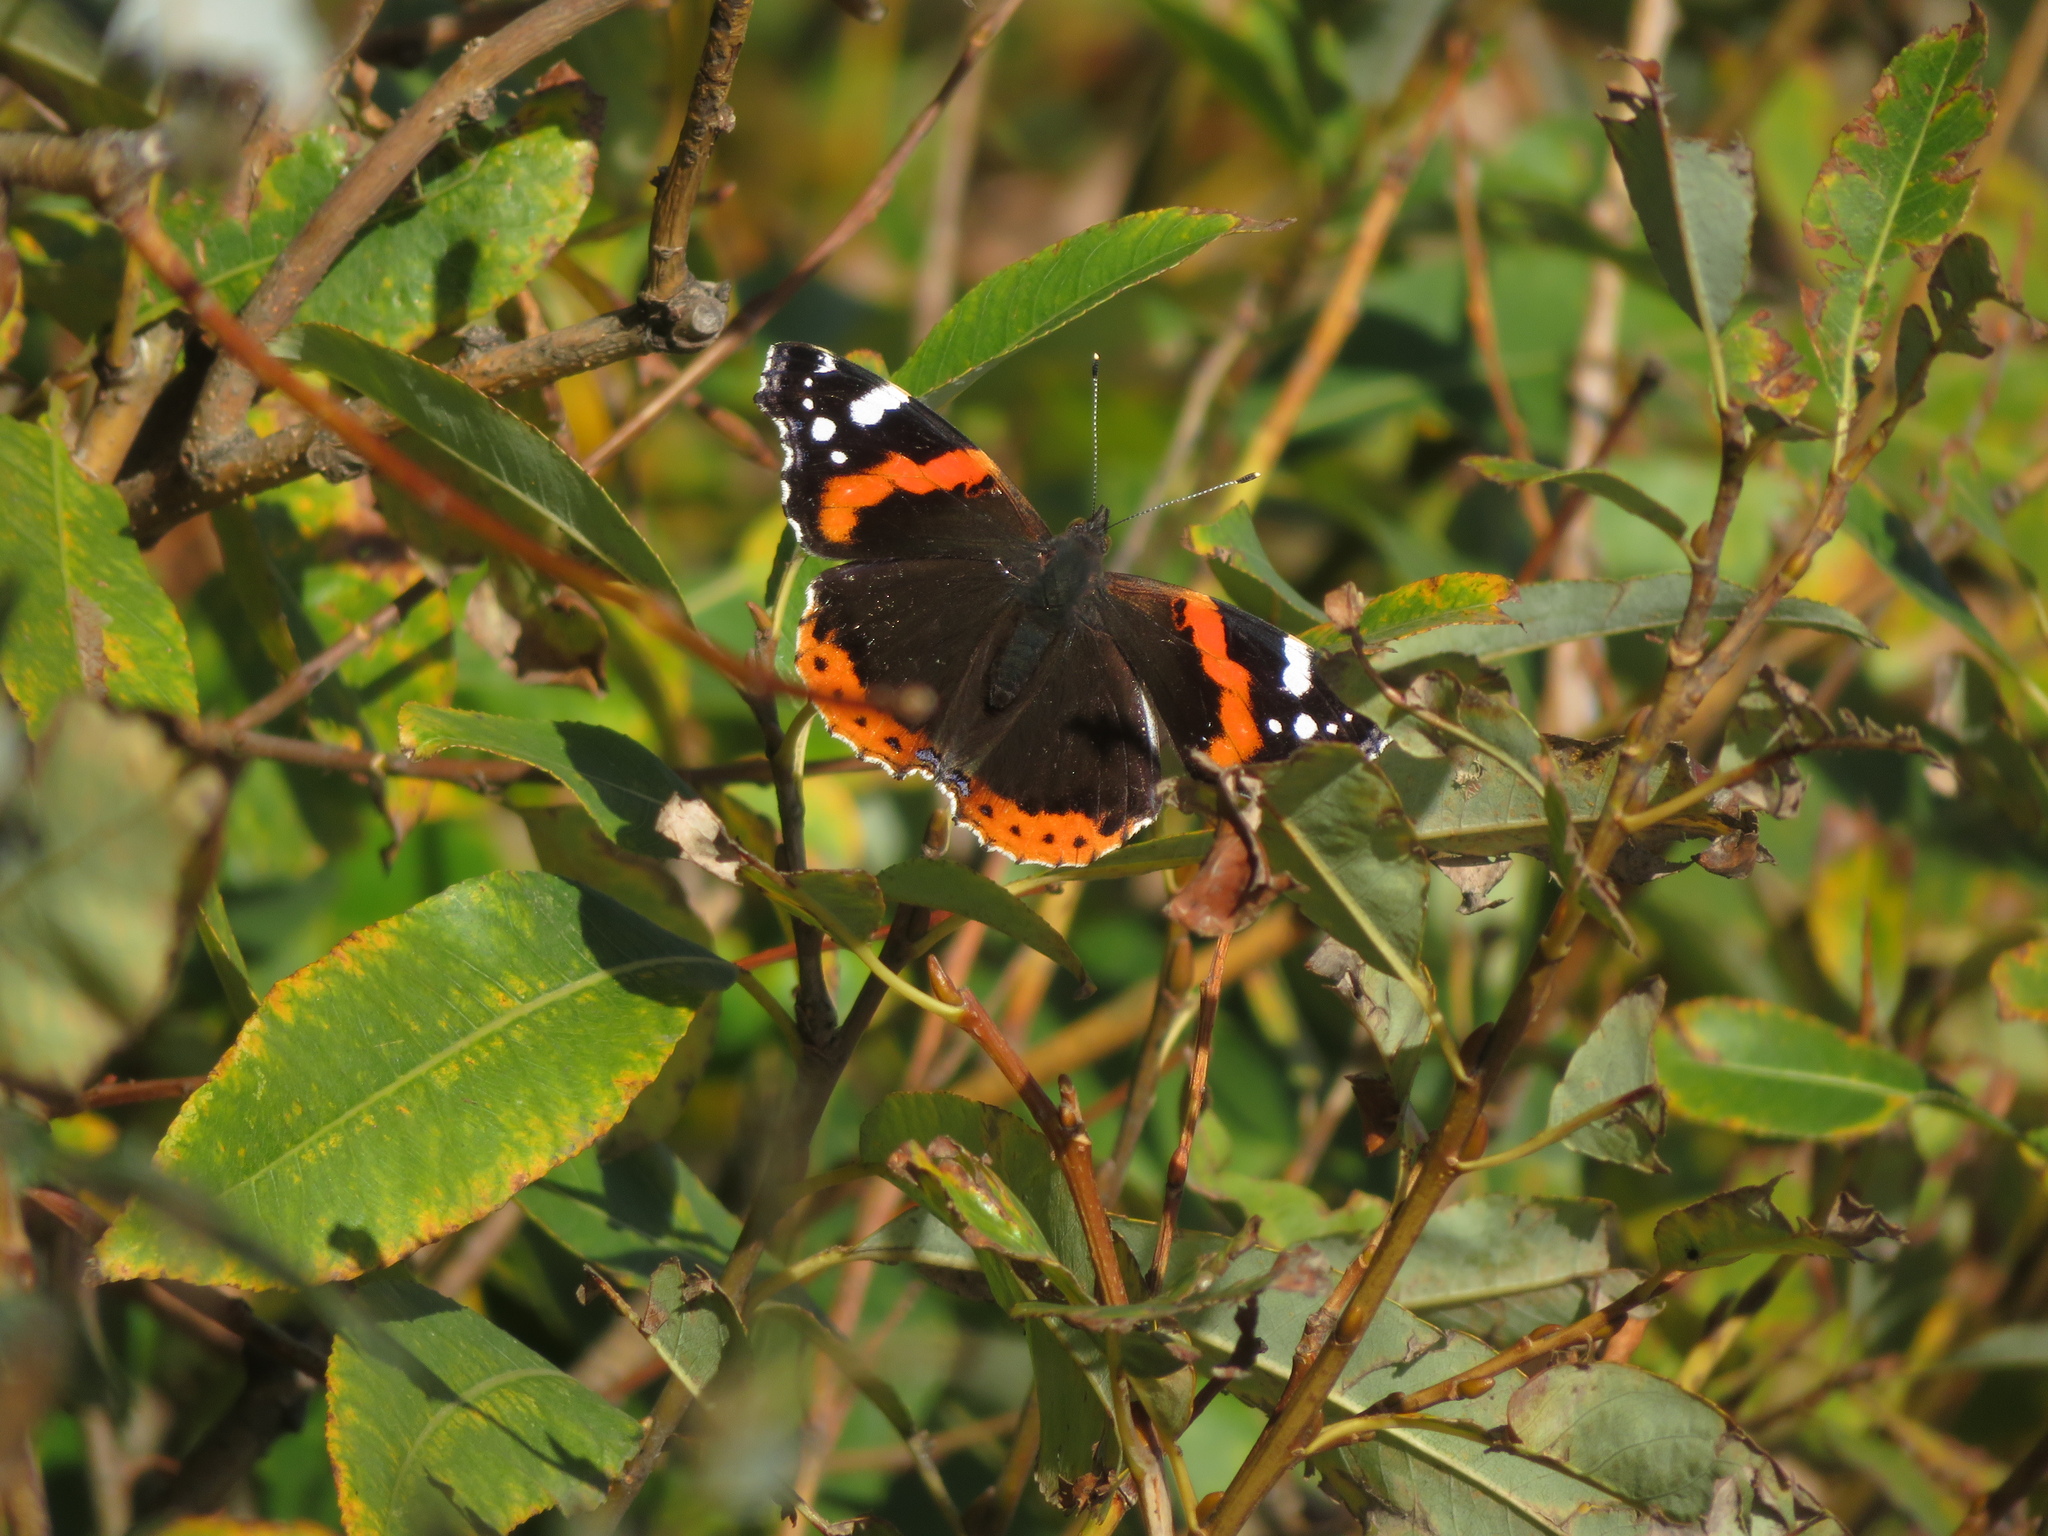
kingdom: Animalia
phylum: Arthropoda
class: Insecta
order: Lepidoptera
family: Nymphalidae
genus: Vanessa
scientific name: Vanessa atalanta
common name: Red admiral
